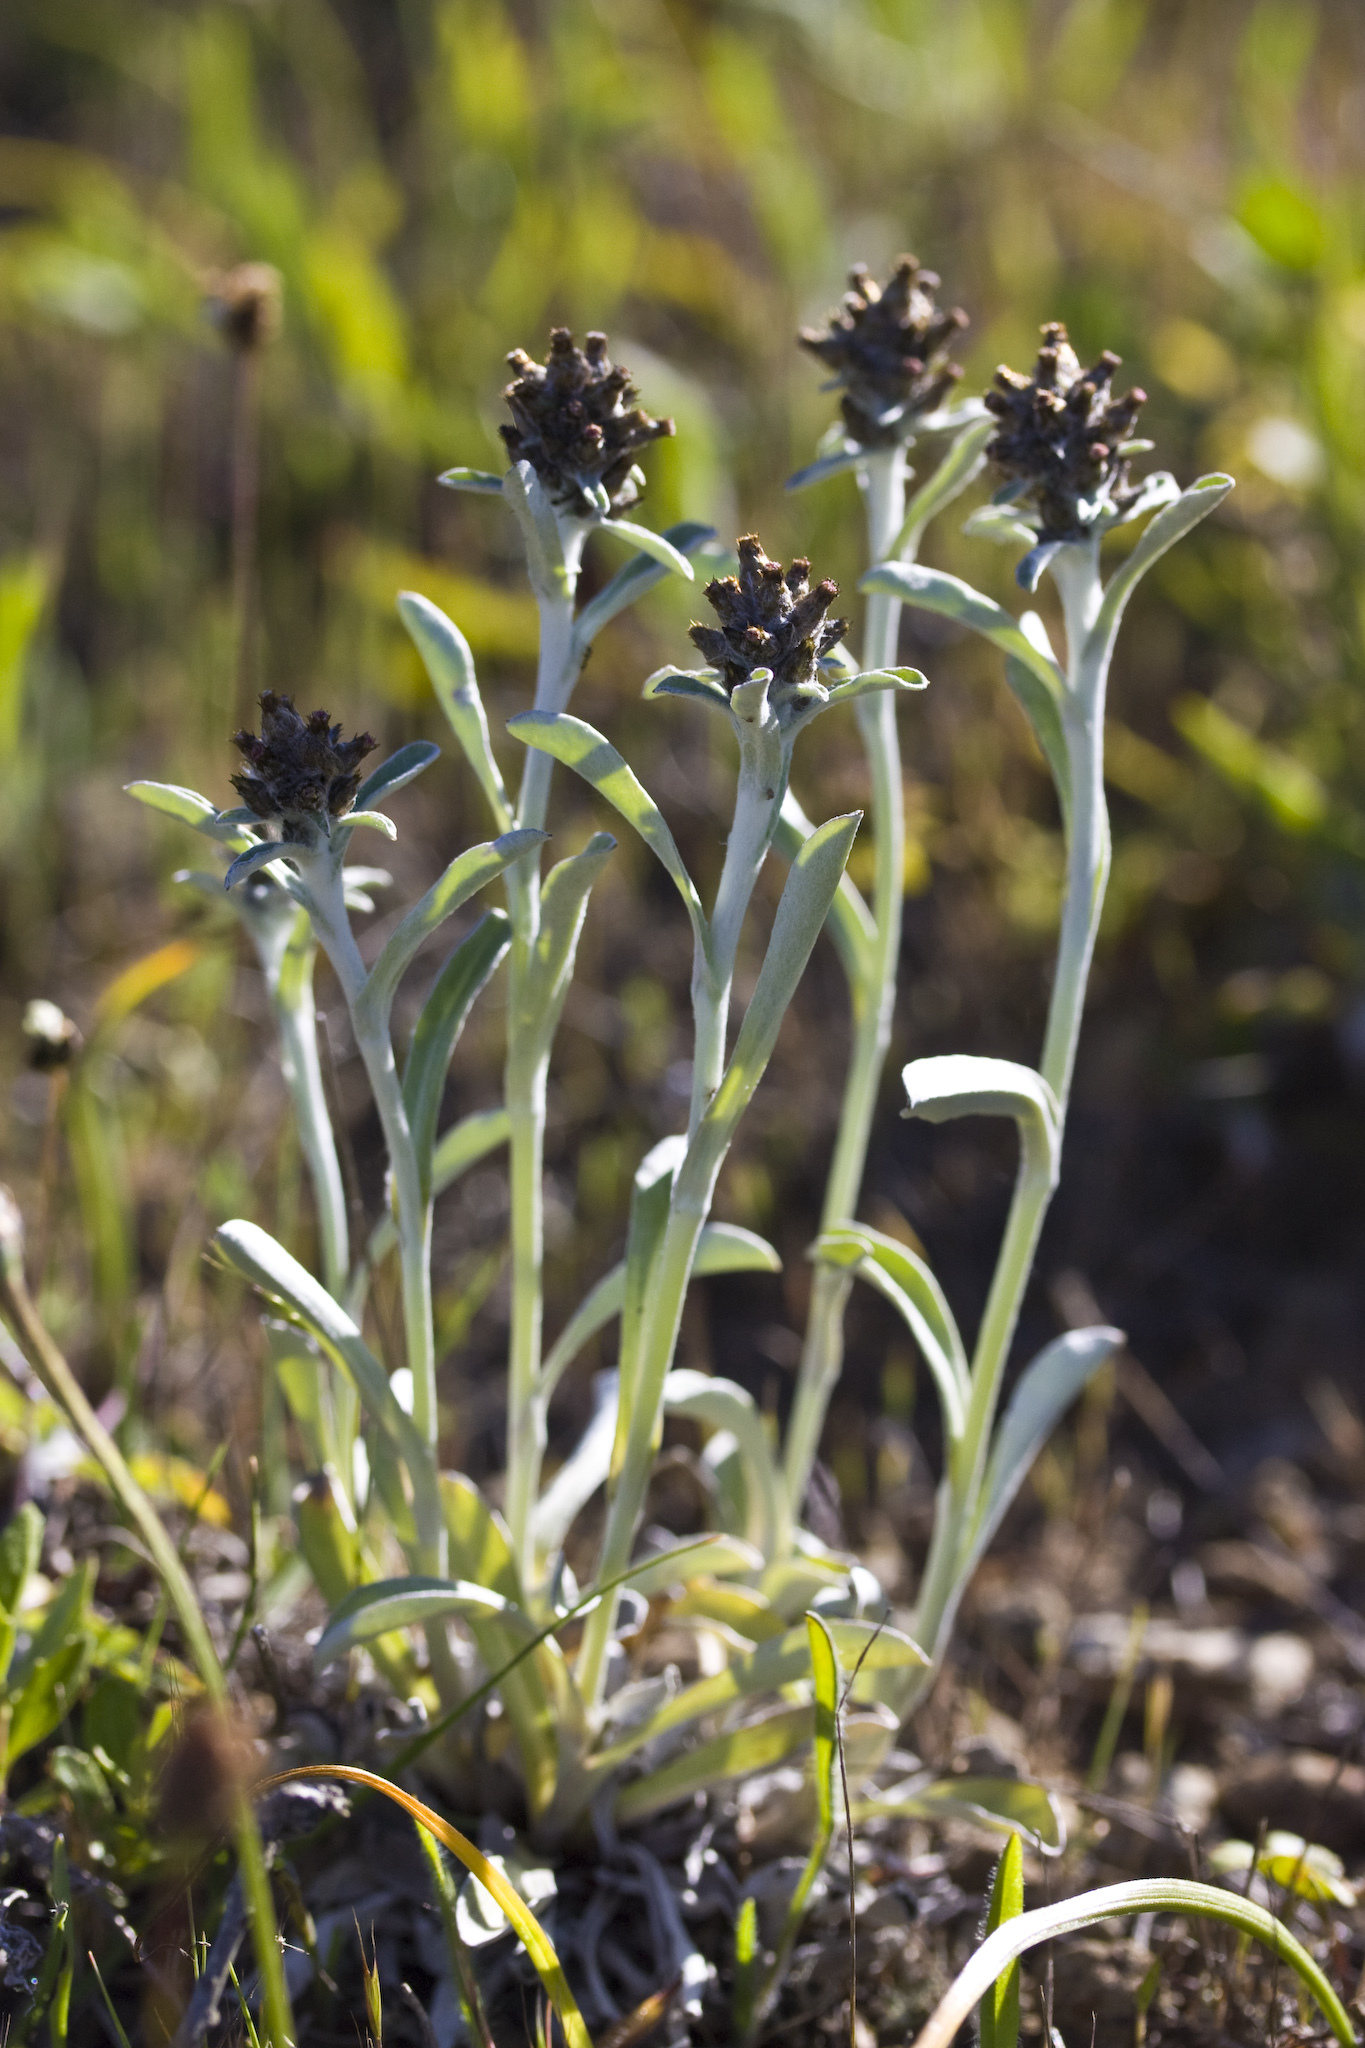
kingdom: Plantae
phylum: Tracheophyta
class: Magnoliopsida
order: Asterales
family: Asteraceae
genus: Gamochaeta
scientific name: Gamochaeta ustulata
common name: Pacific cudweed
